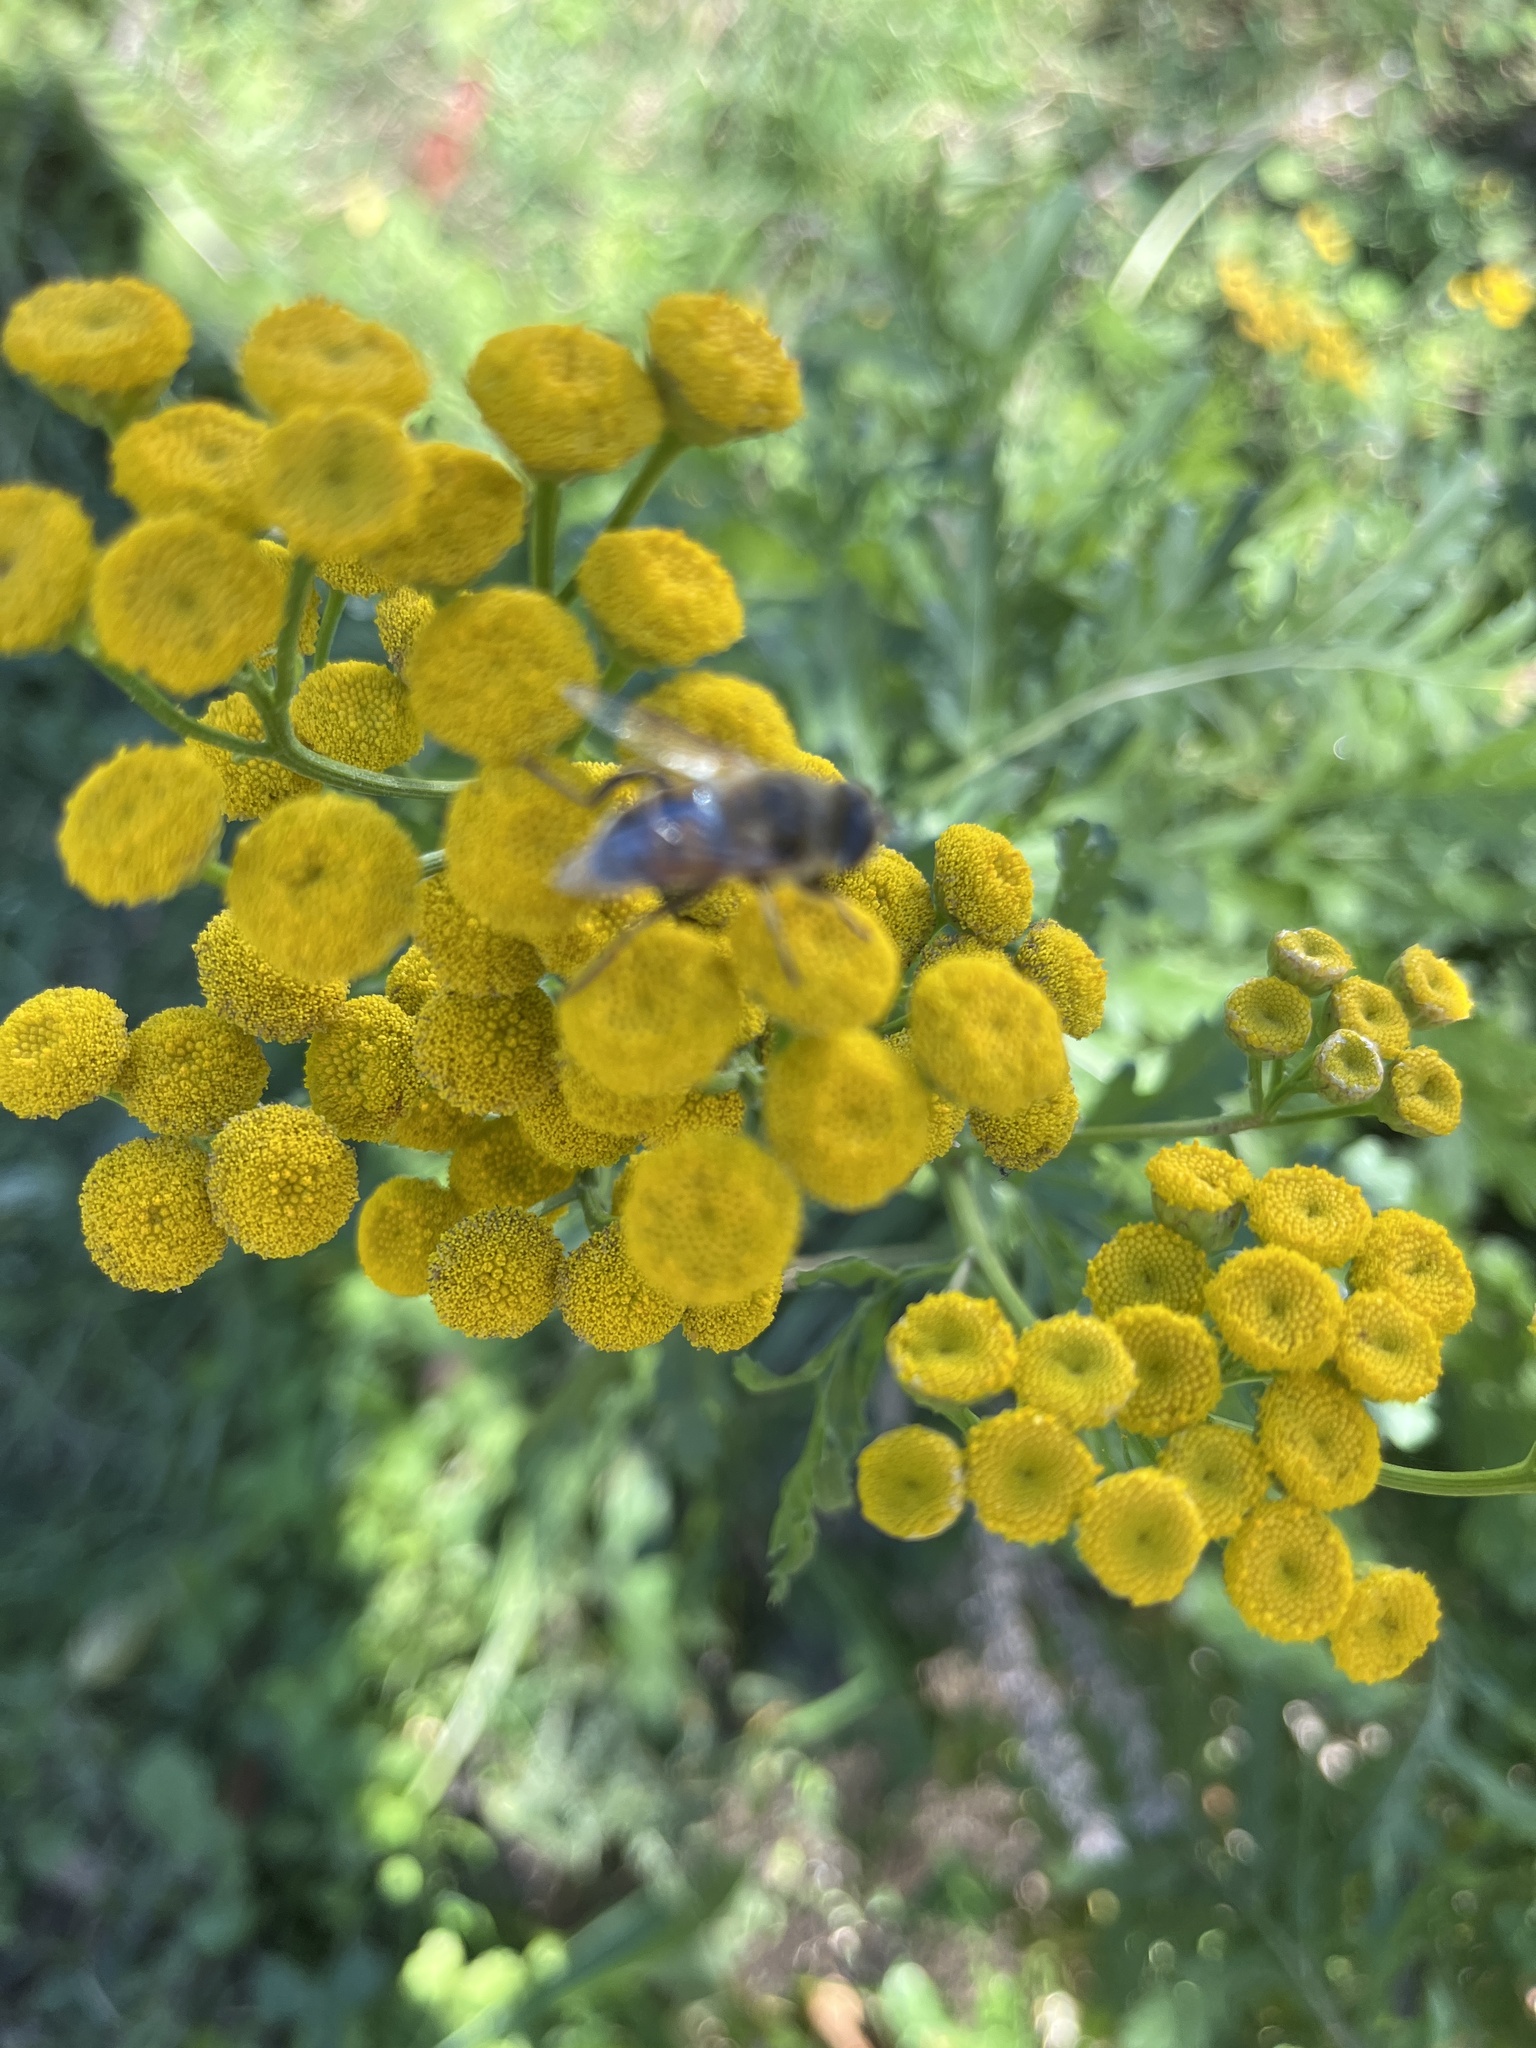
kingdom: Plantae
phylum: Tracheophyta
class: Magnoliopsida
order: Asterales
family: Asteraceae
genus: Tanacetum
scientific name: Tanacetum vulgare
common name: Common tansy
